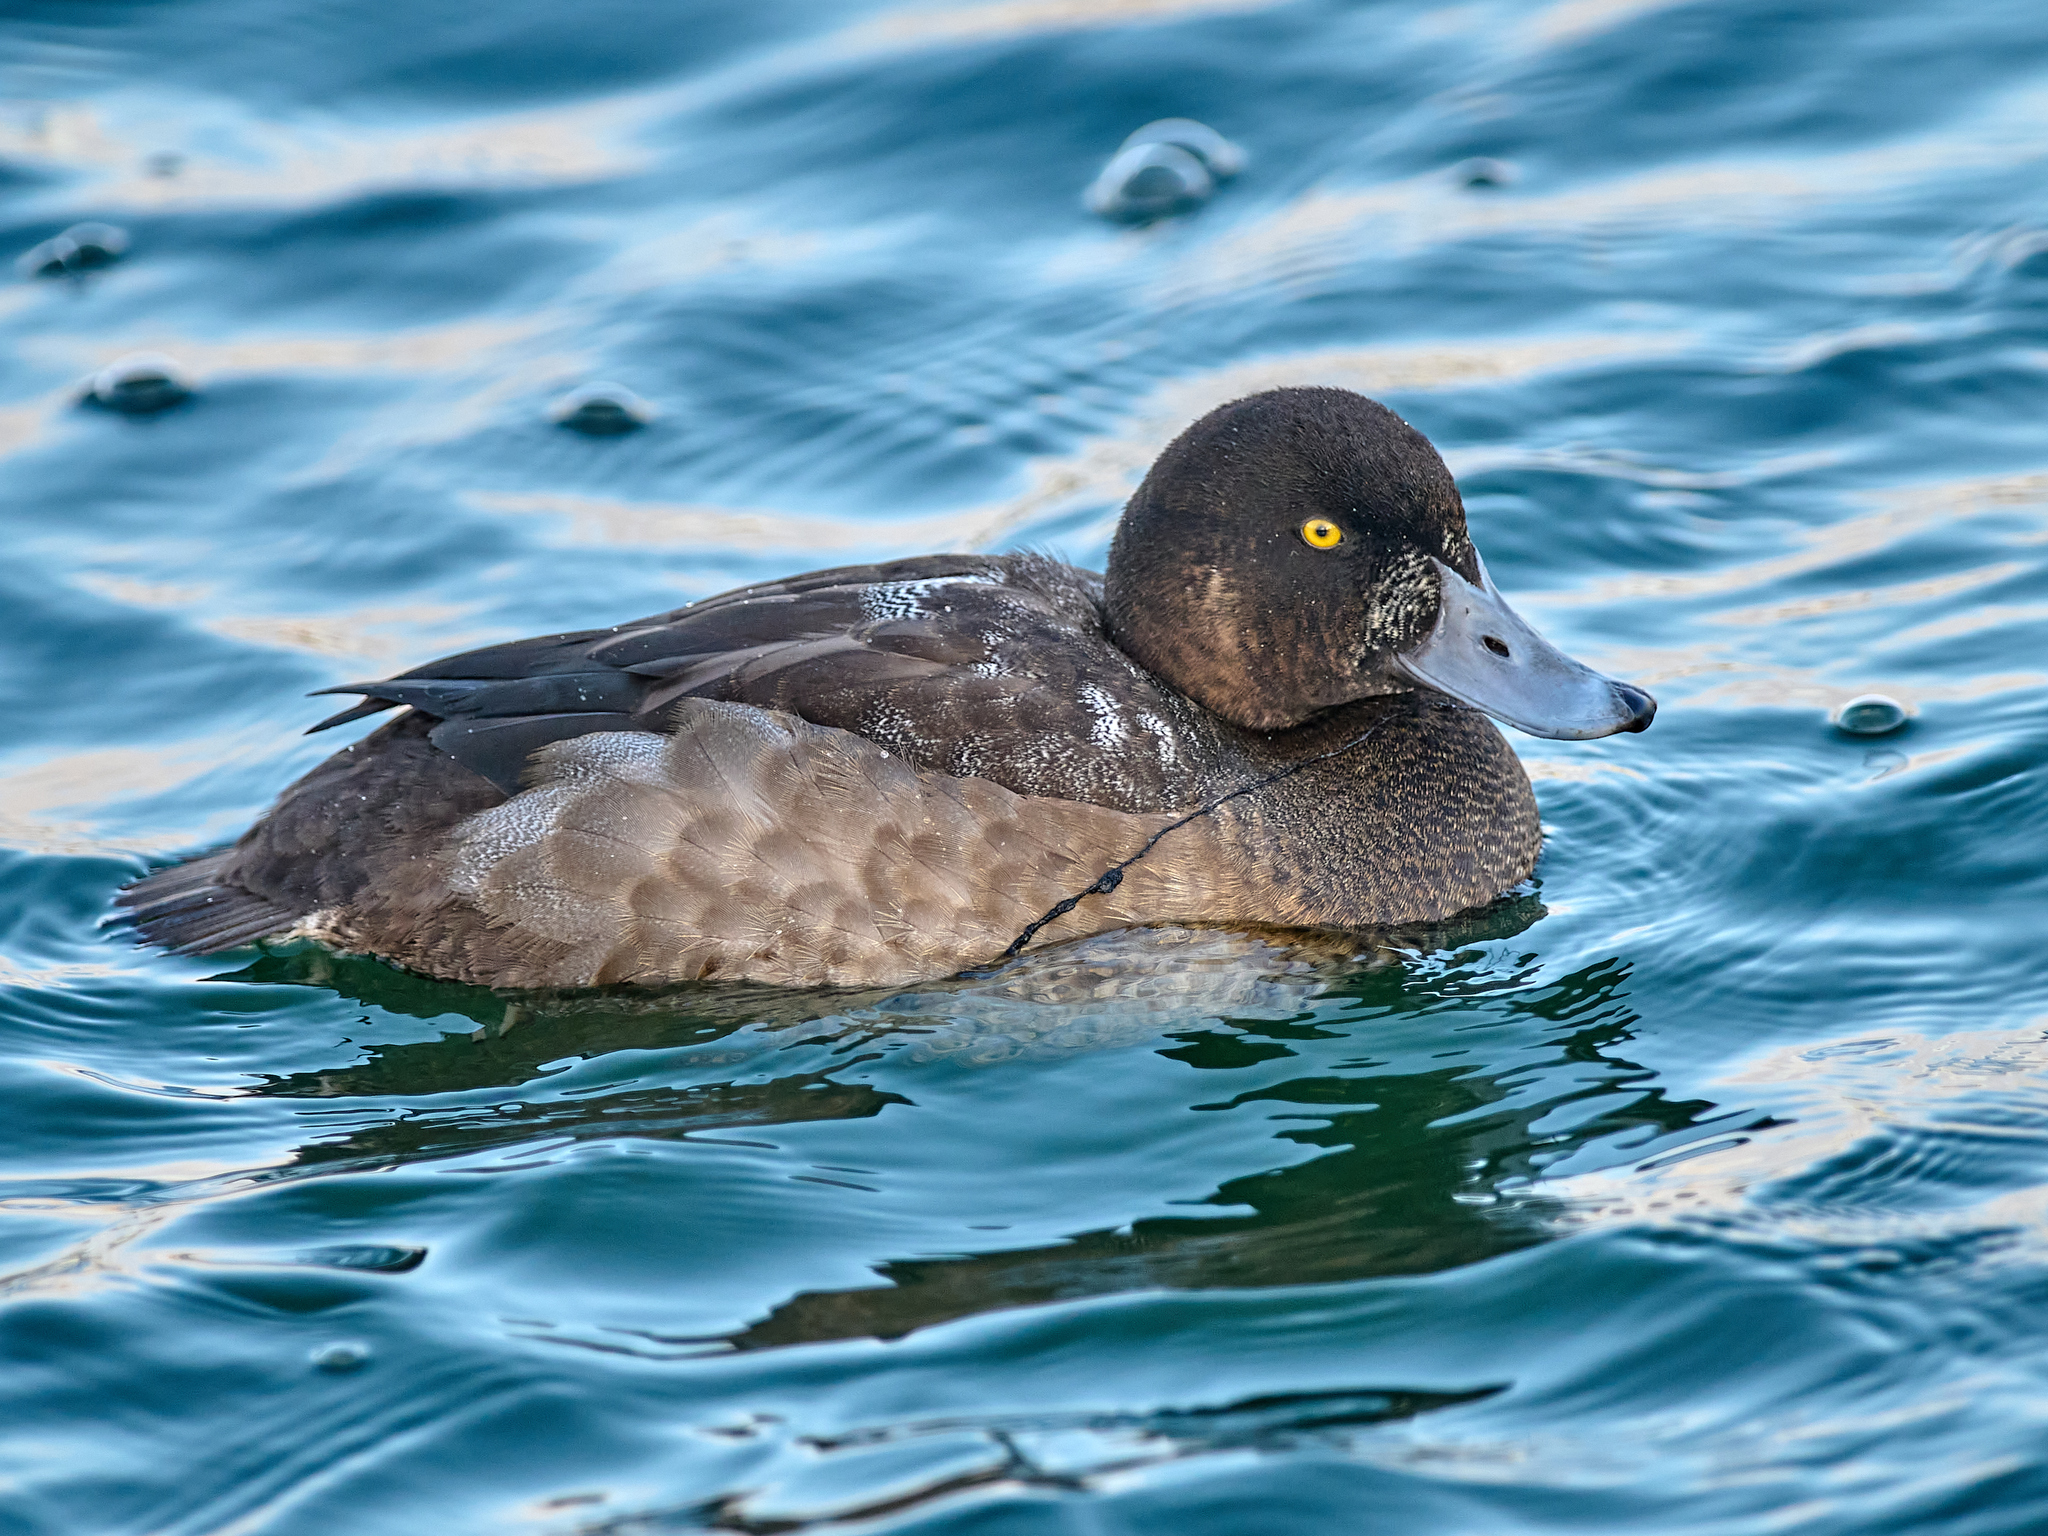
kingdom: Animalia
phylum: Chordata
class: Aves
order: Anseriformes
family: Anatidae
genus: Aythya
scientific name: Aythya marila
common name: Greater scaup
